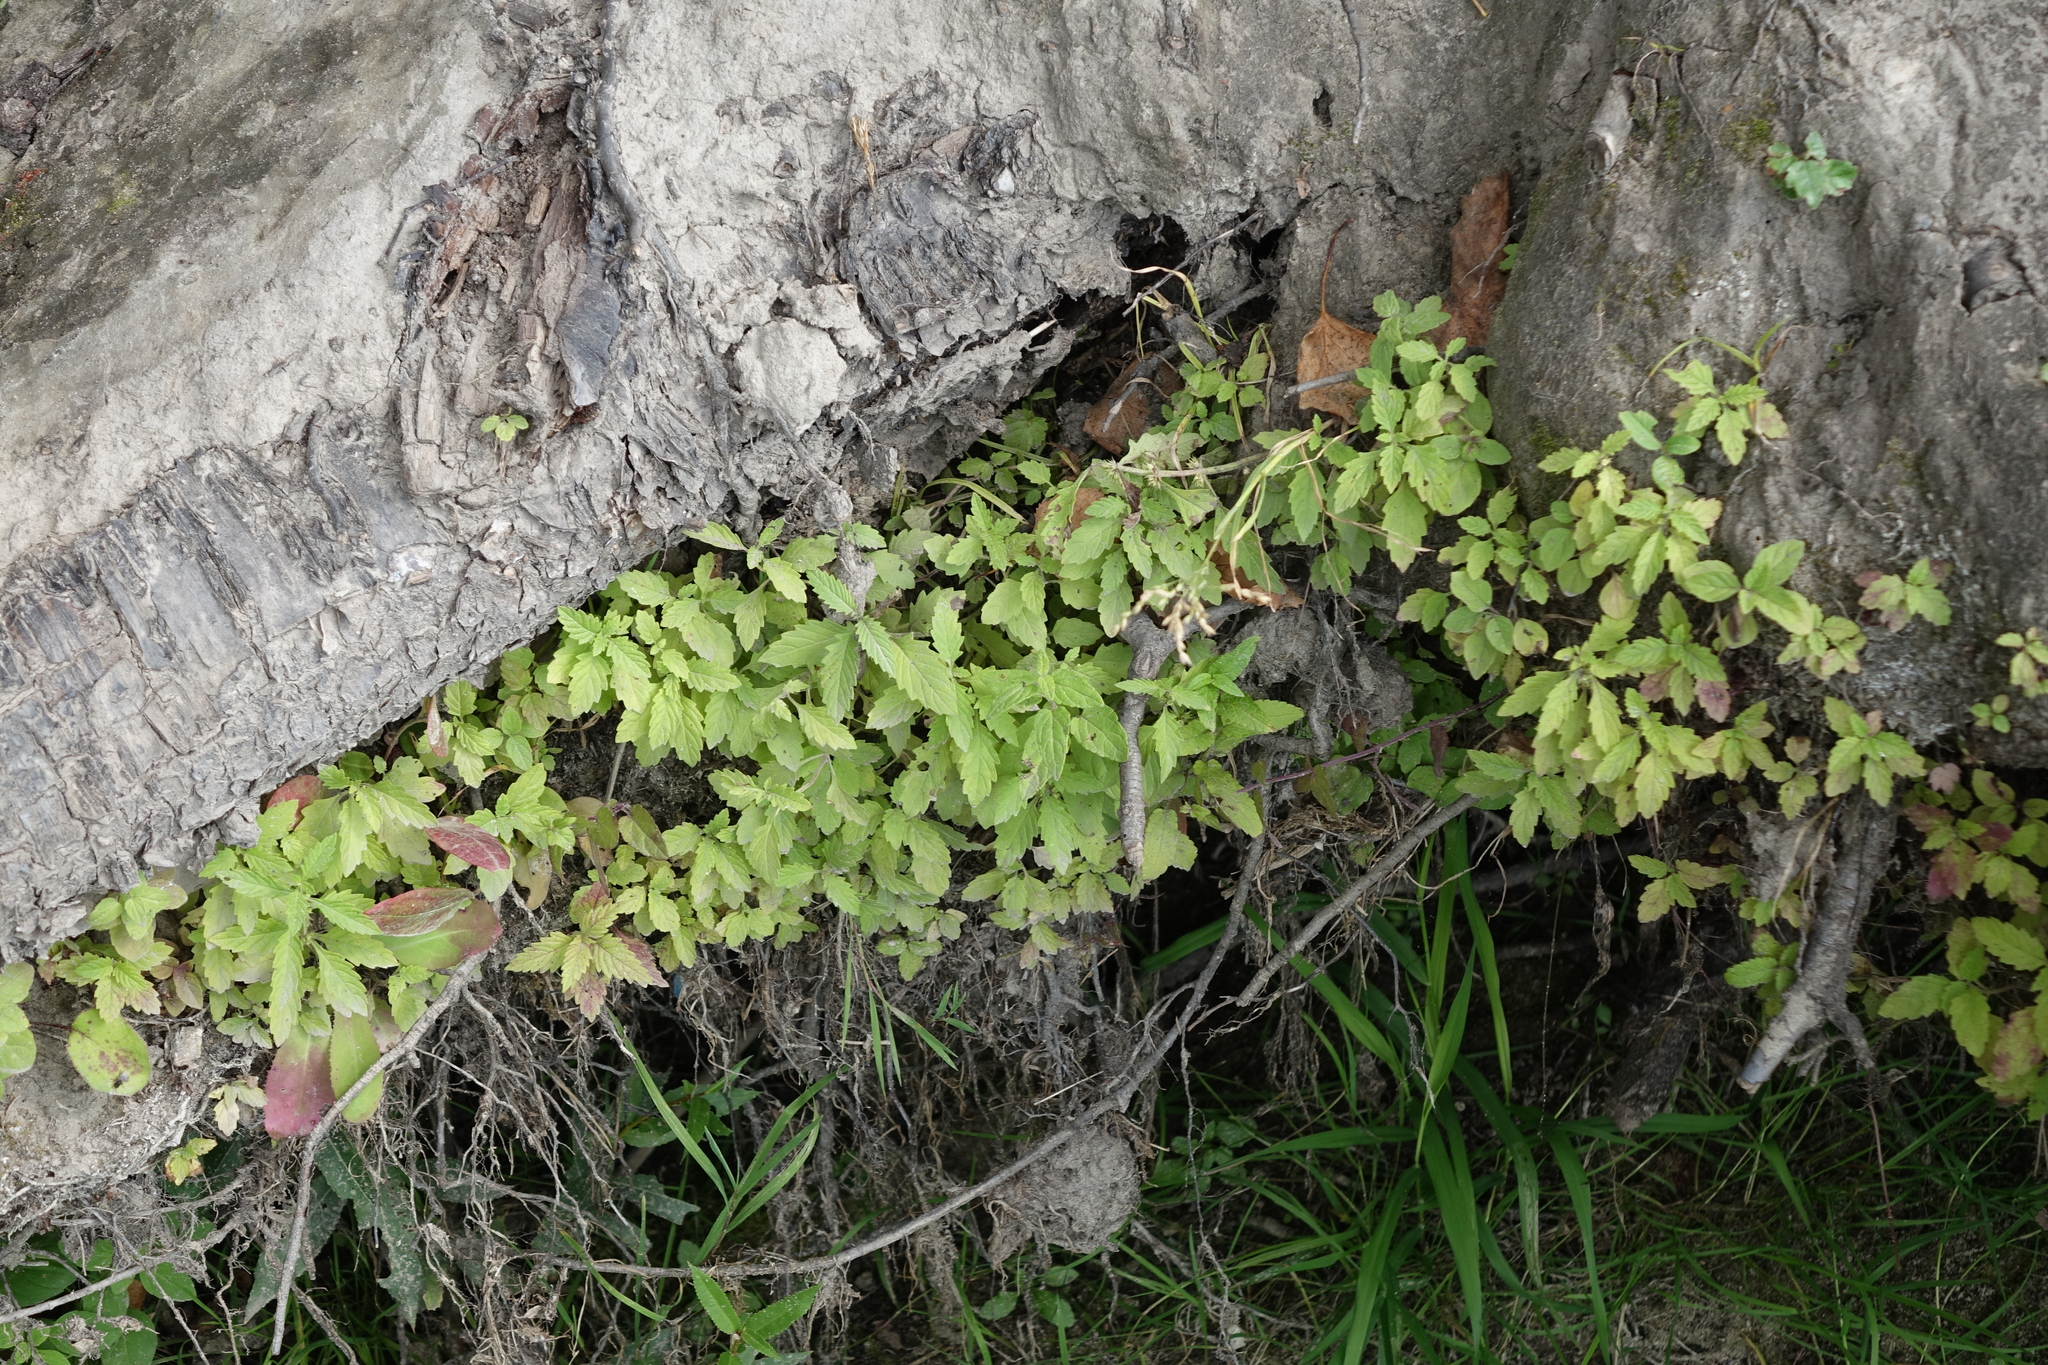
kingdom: Plantae
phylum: Tracheophyta
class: Magnoliopsida
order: Lamiales
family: Lamiaceae
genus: Lycopus
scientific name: Lycopus europaeus
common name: European bugleweed
